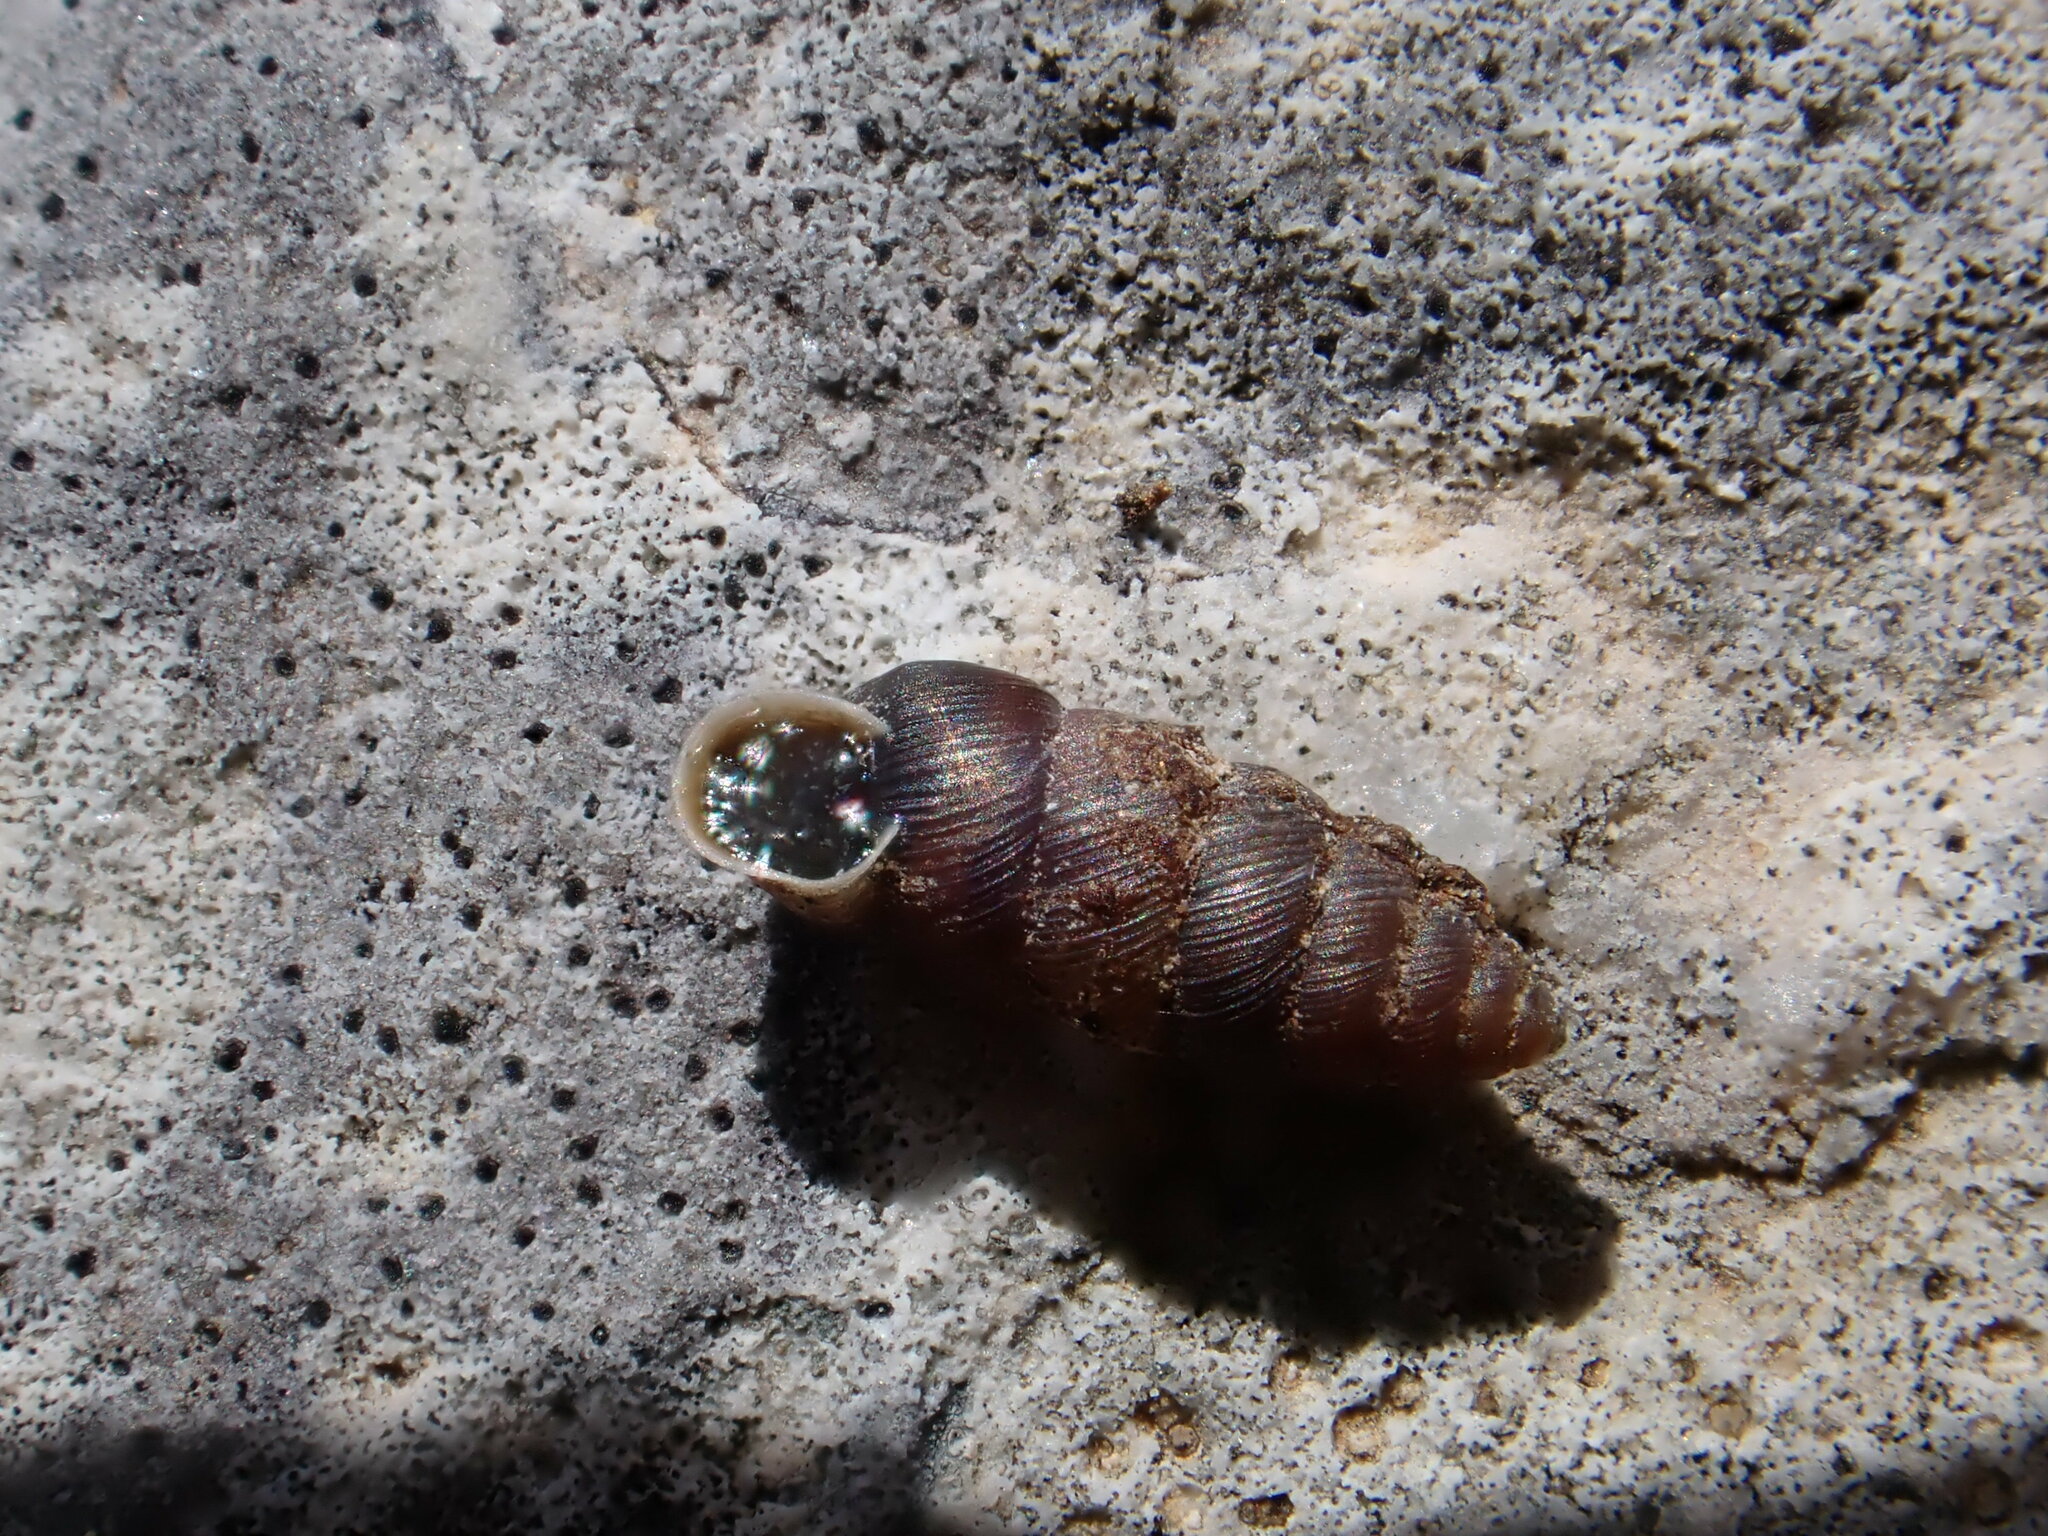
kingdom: Animalia
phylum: Mollusca
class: Gastropoda
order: Stylommatophora
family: Chondrinidae
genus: Granopupa
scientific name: Granopupa granum
